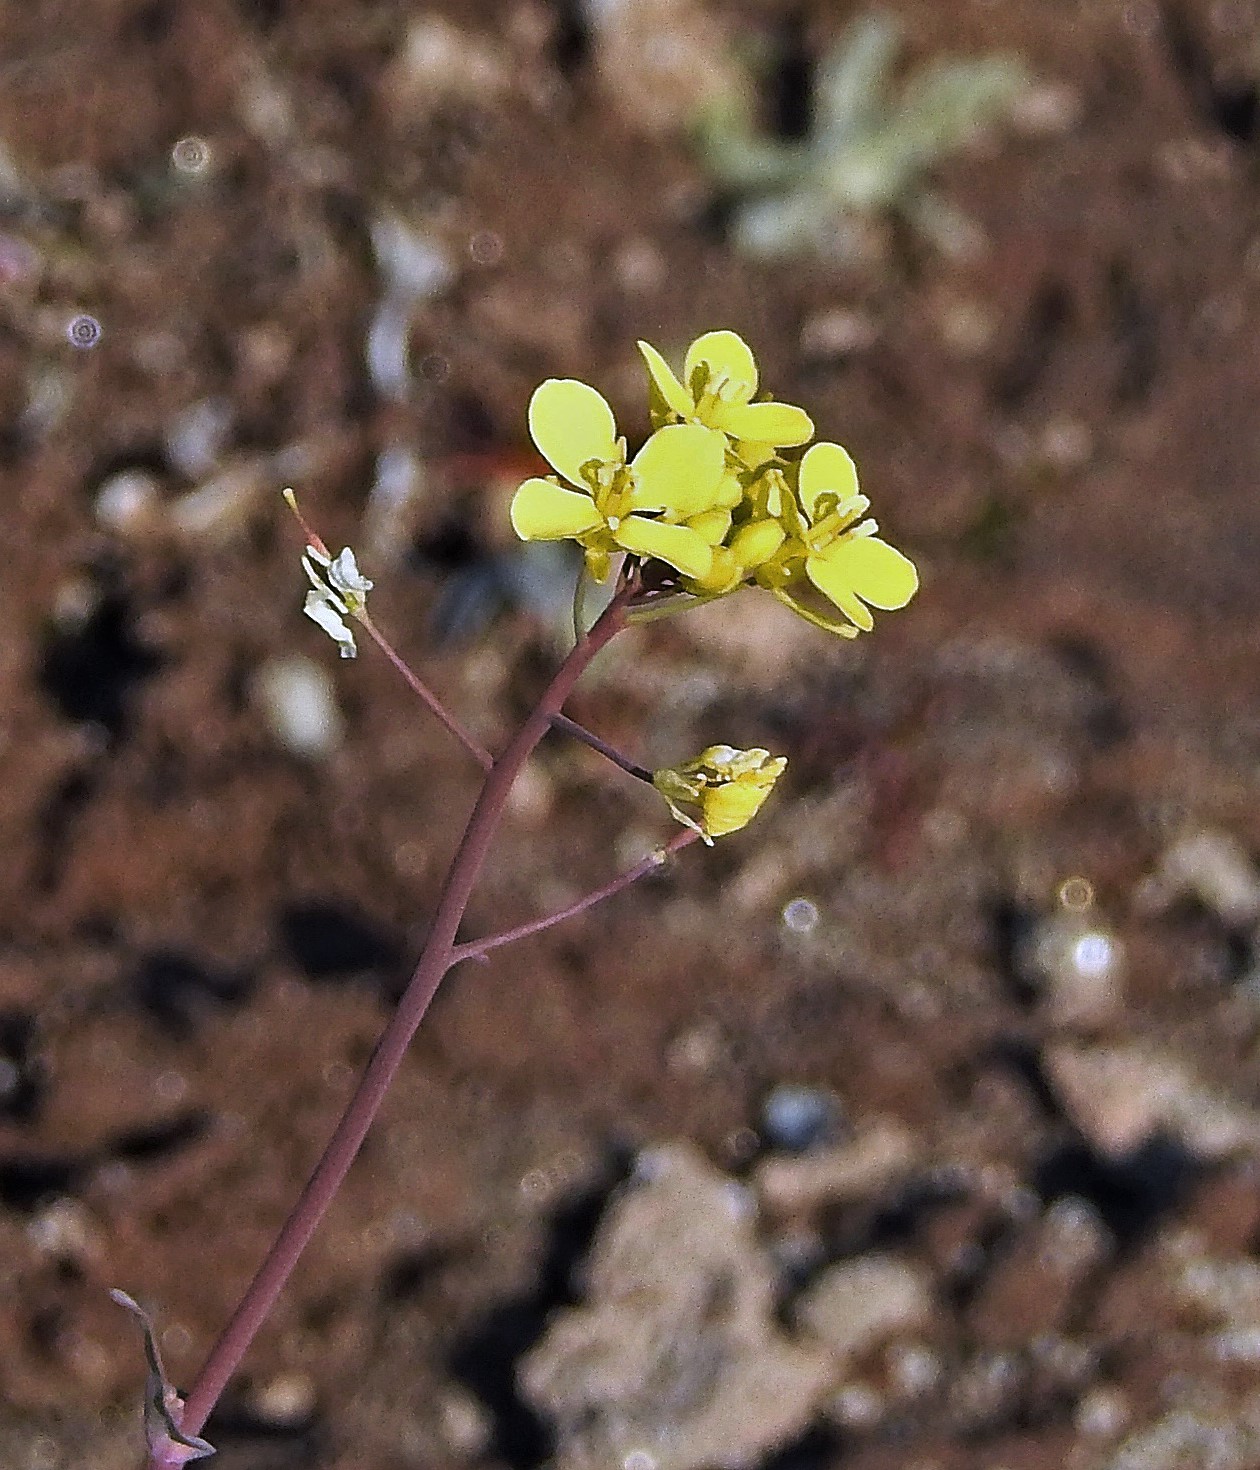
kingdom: Plantae
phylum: Tracheophyta
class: Magnoliopsida
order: Brassicales
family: Brassicaceae
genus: Diplotaxis
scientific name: Diplotaxis tenuifolia
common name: Perennial wall-rocket
